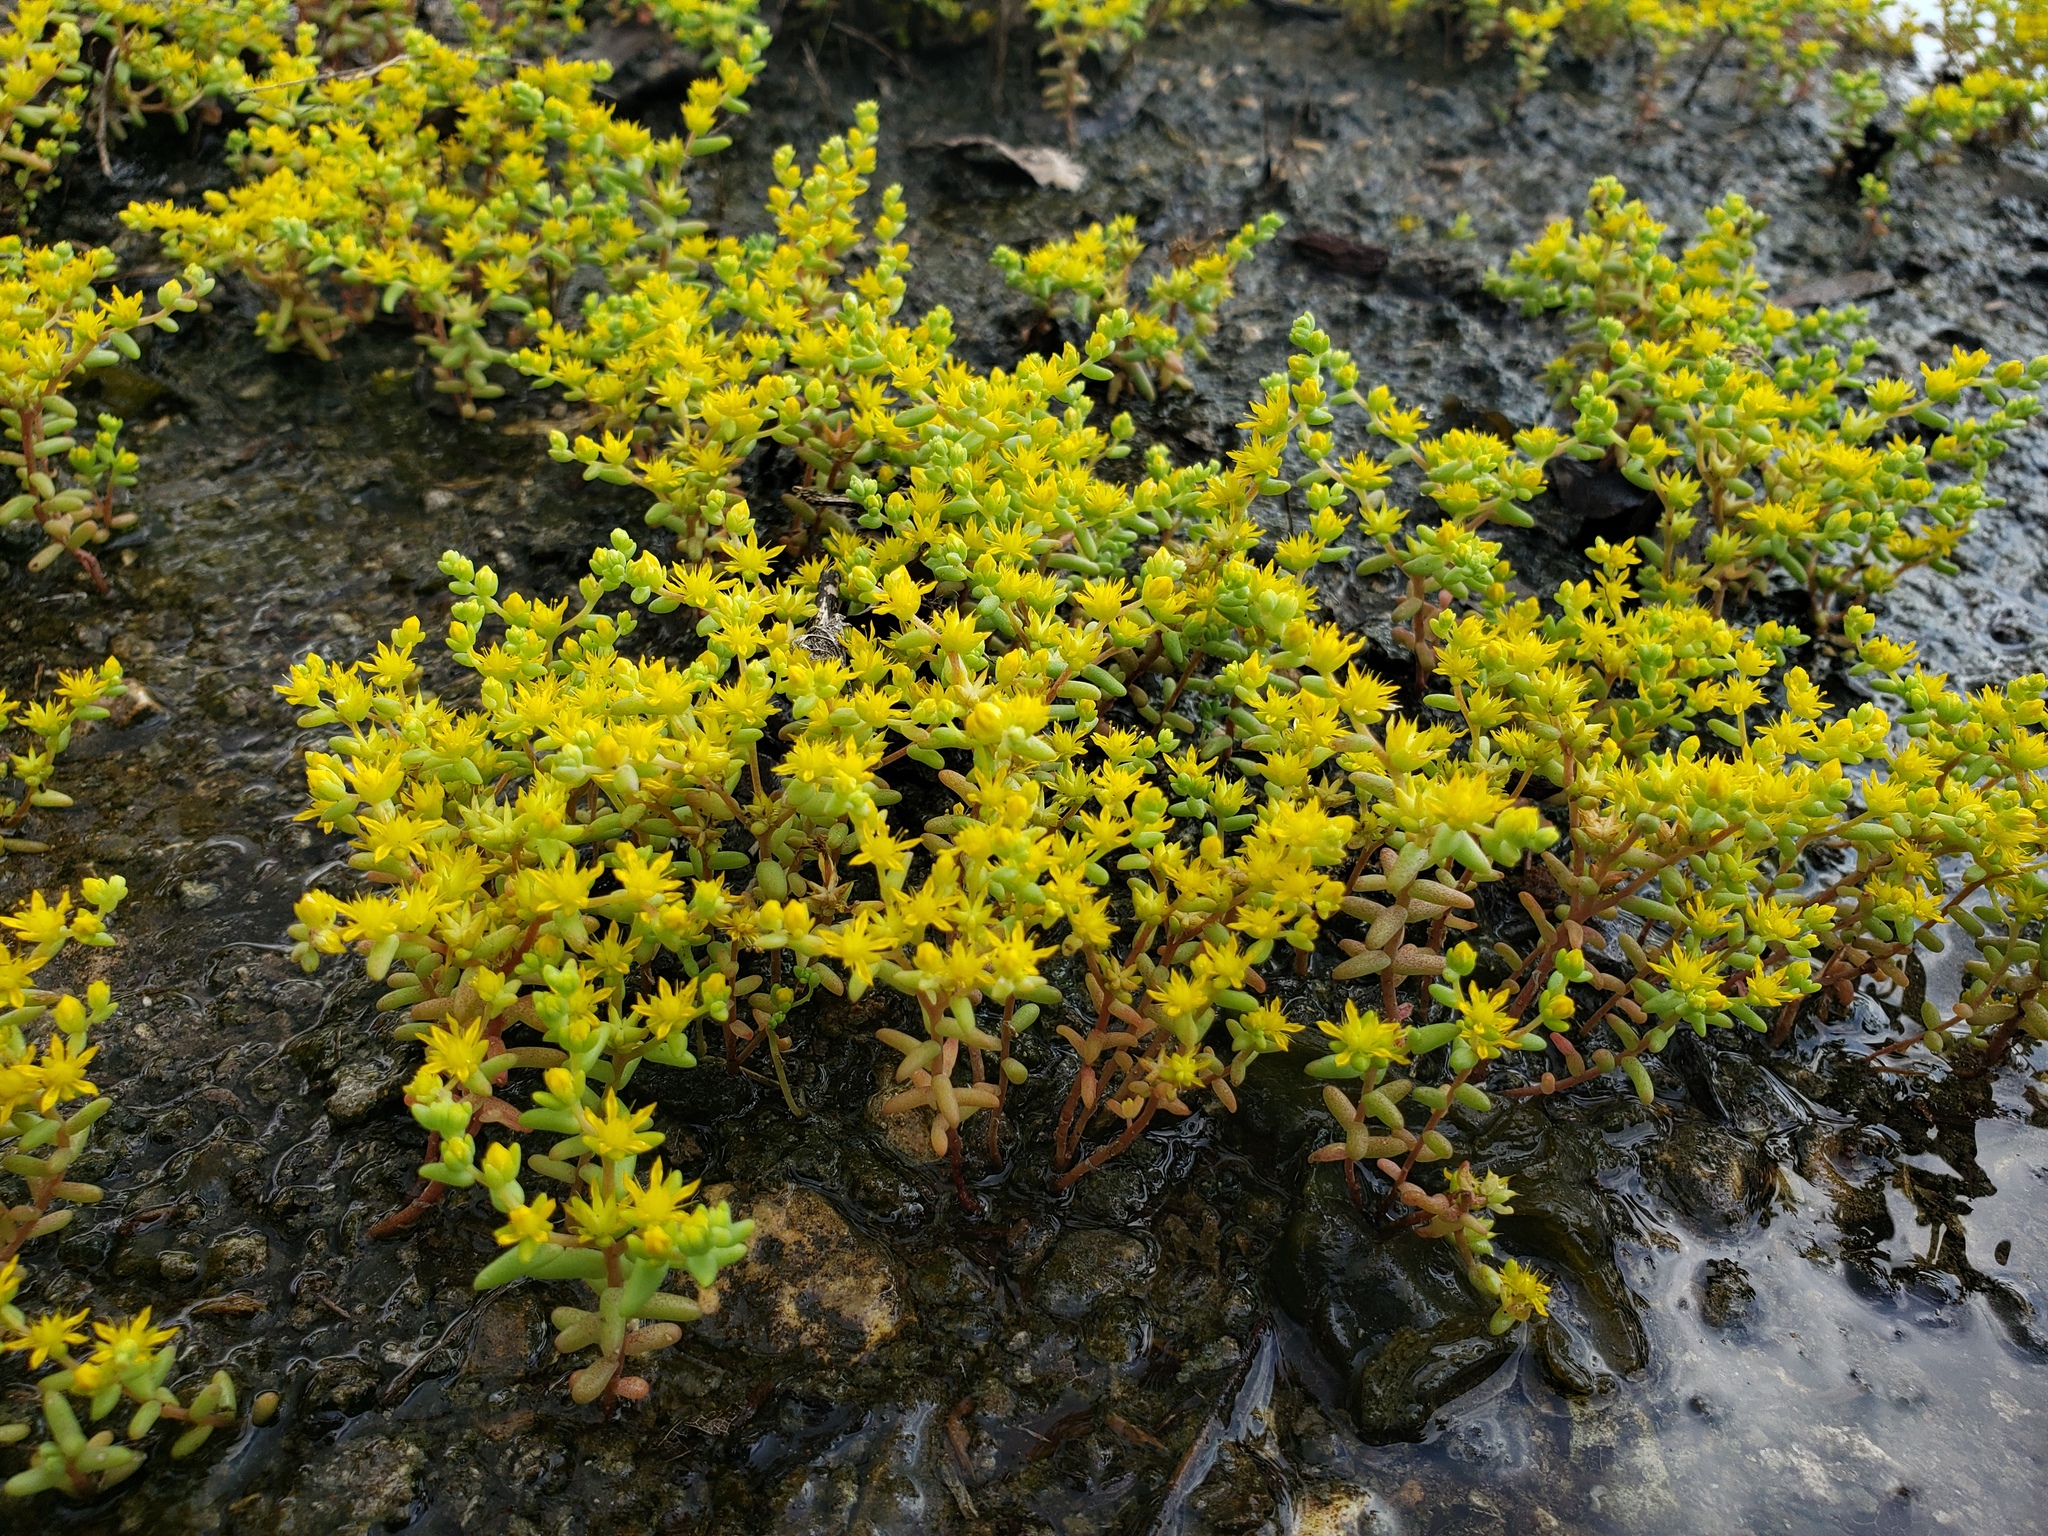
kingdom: Plantae
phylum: Tracheophyta
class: Magnoliopsida
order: Saxifragales
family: Crassulaceae
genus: Sedum
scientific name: Sedum nuttallii
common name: Yellow stonecrop
